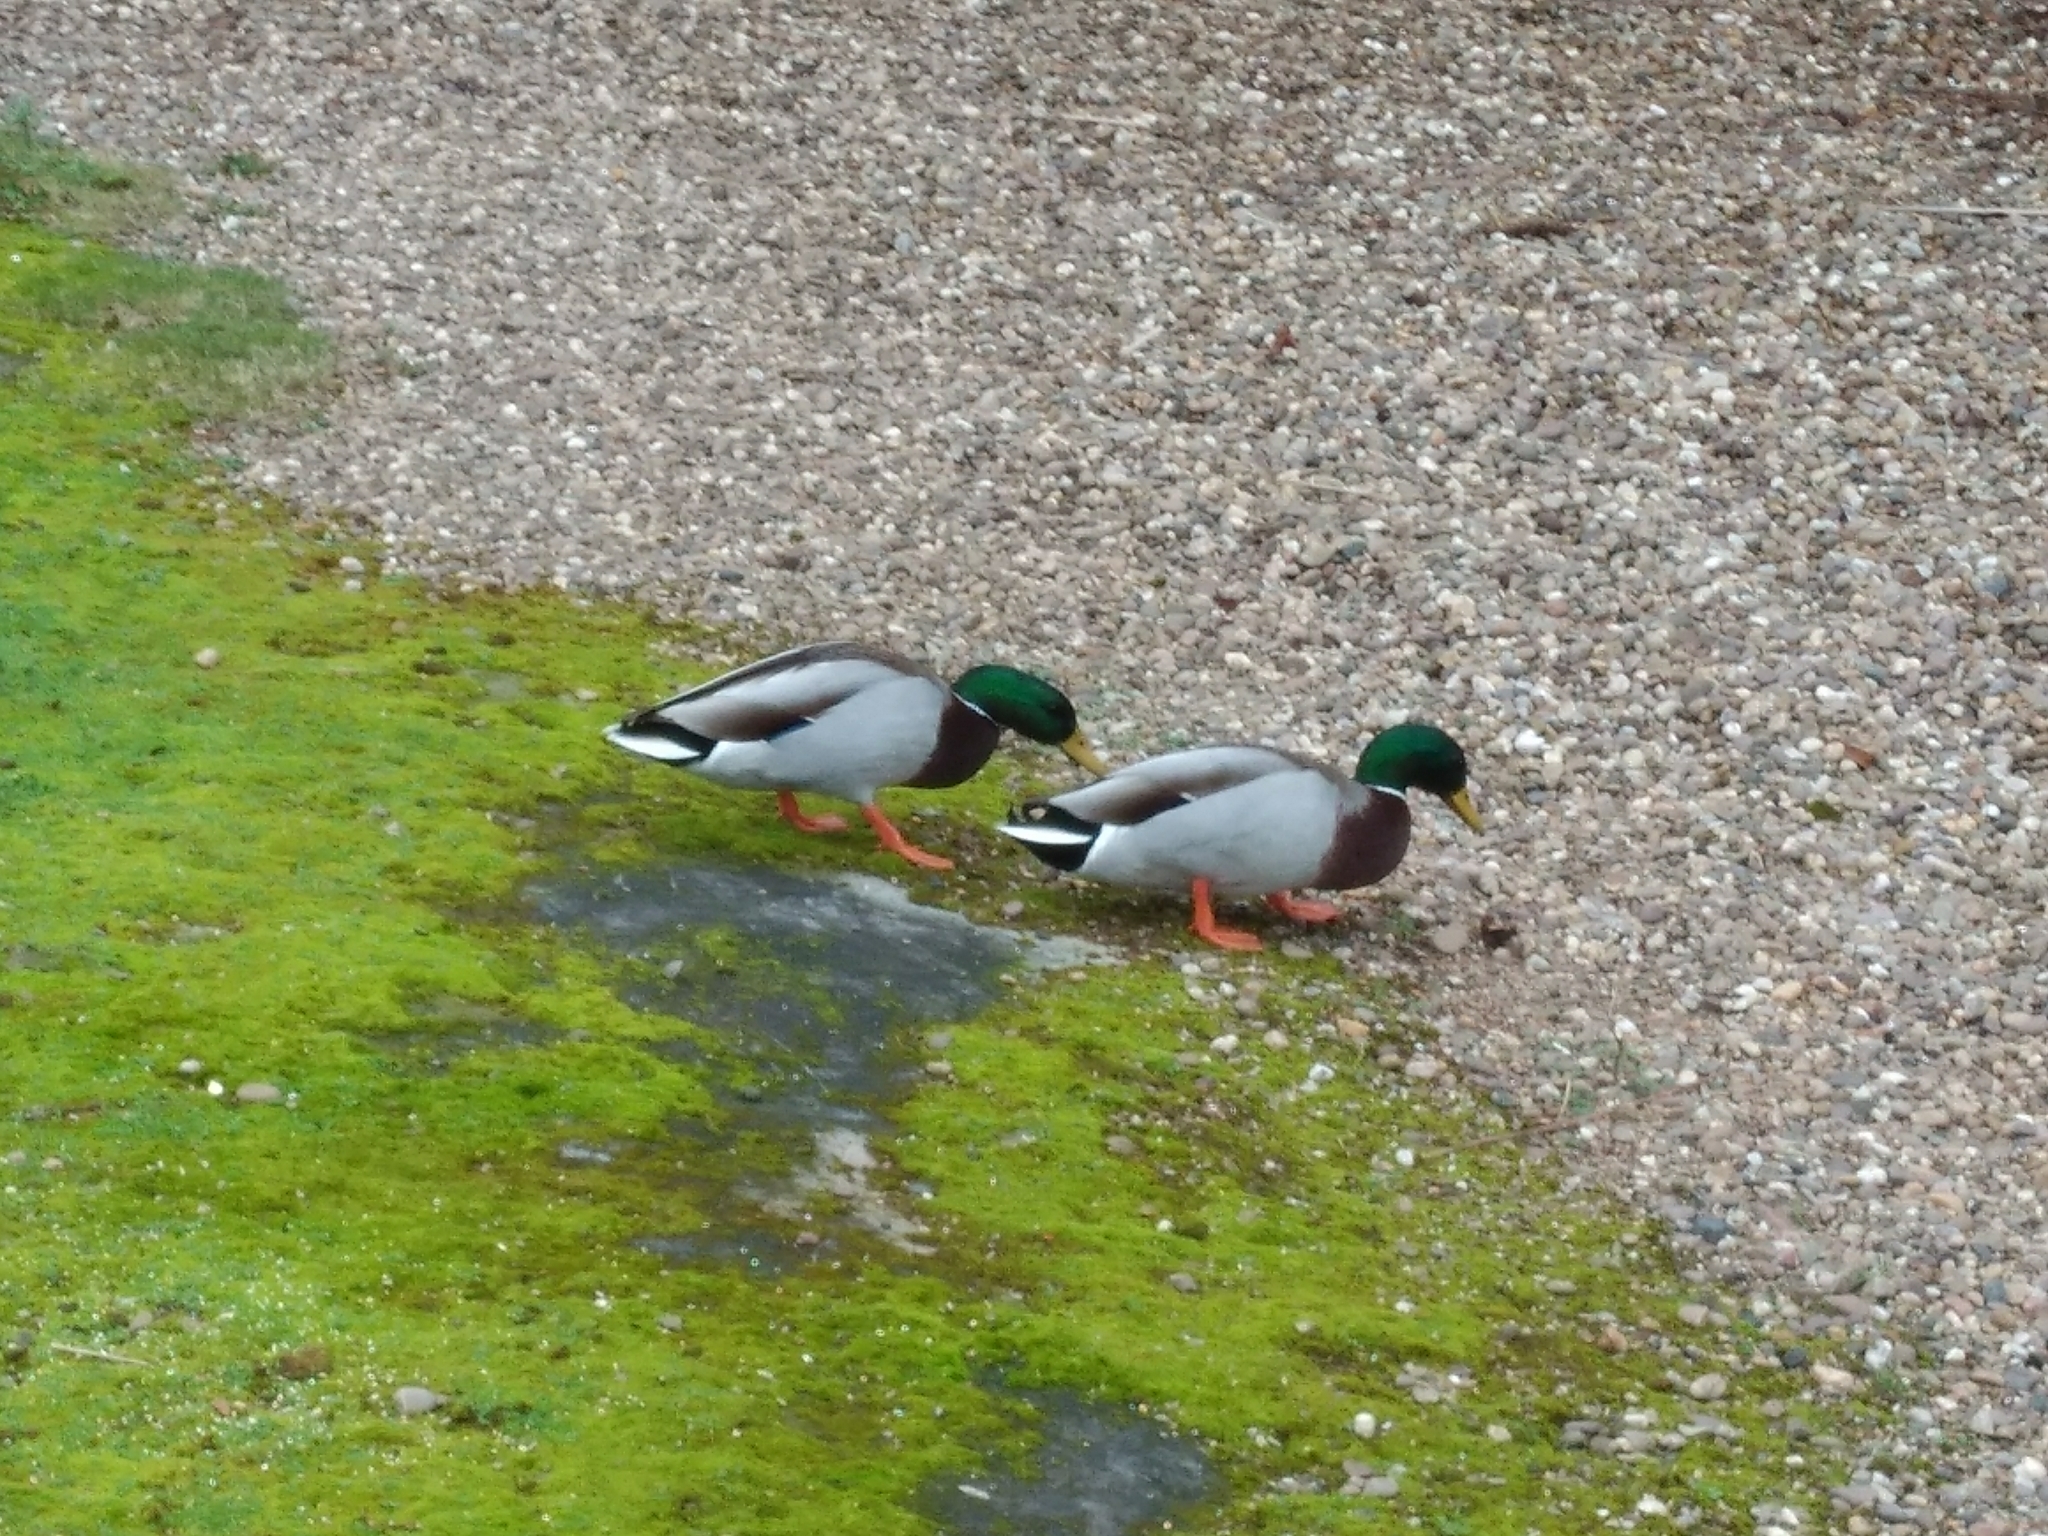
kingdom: Animalia
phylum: Chordata
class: Aves
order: Anseriformes
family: Anatidae
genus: Anas
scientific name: Anas platyrhynchos
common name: Mallard
